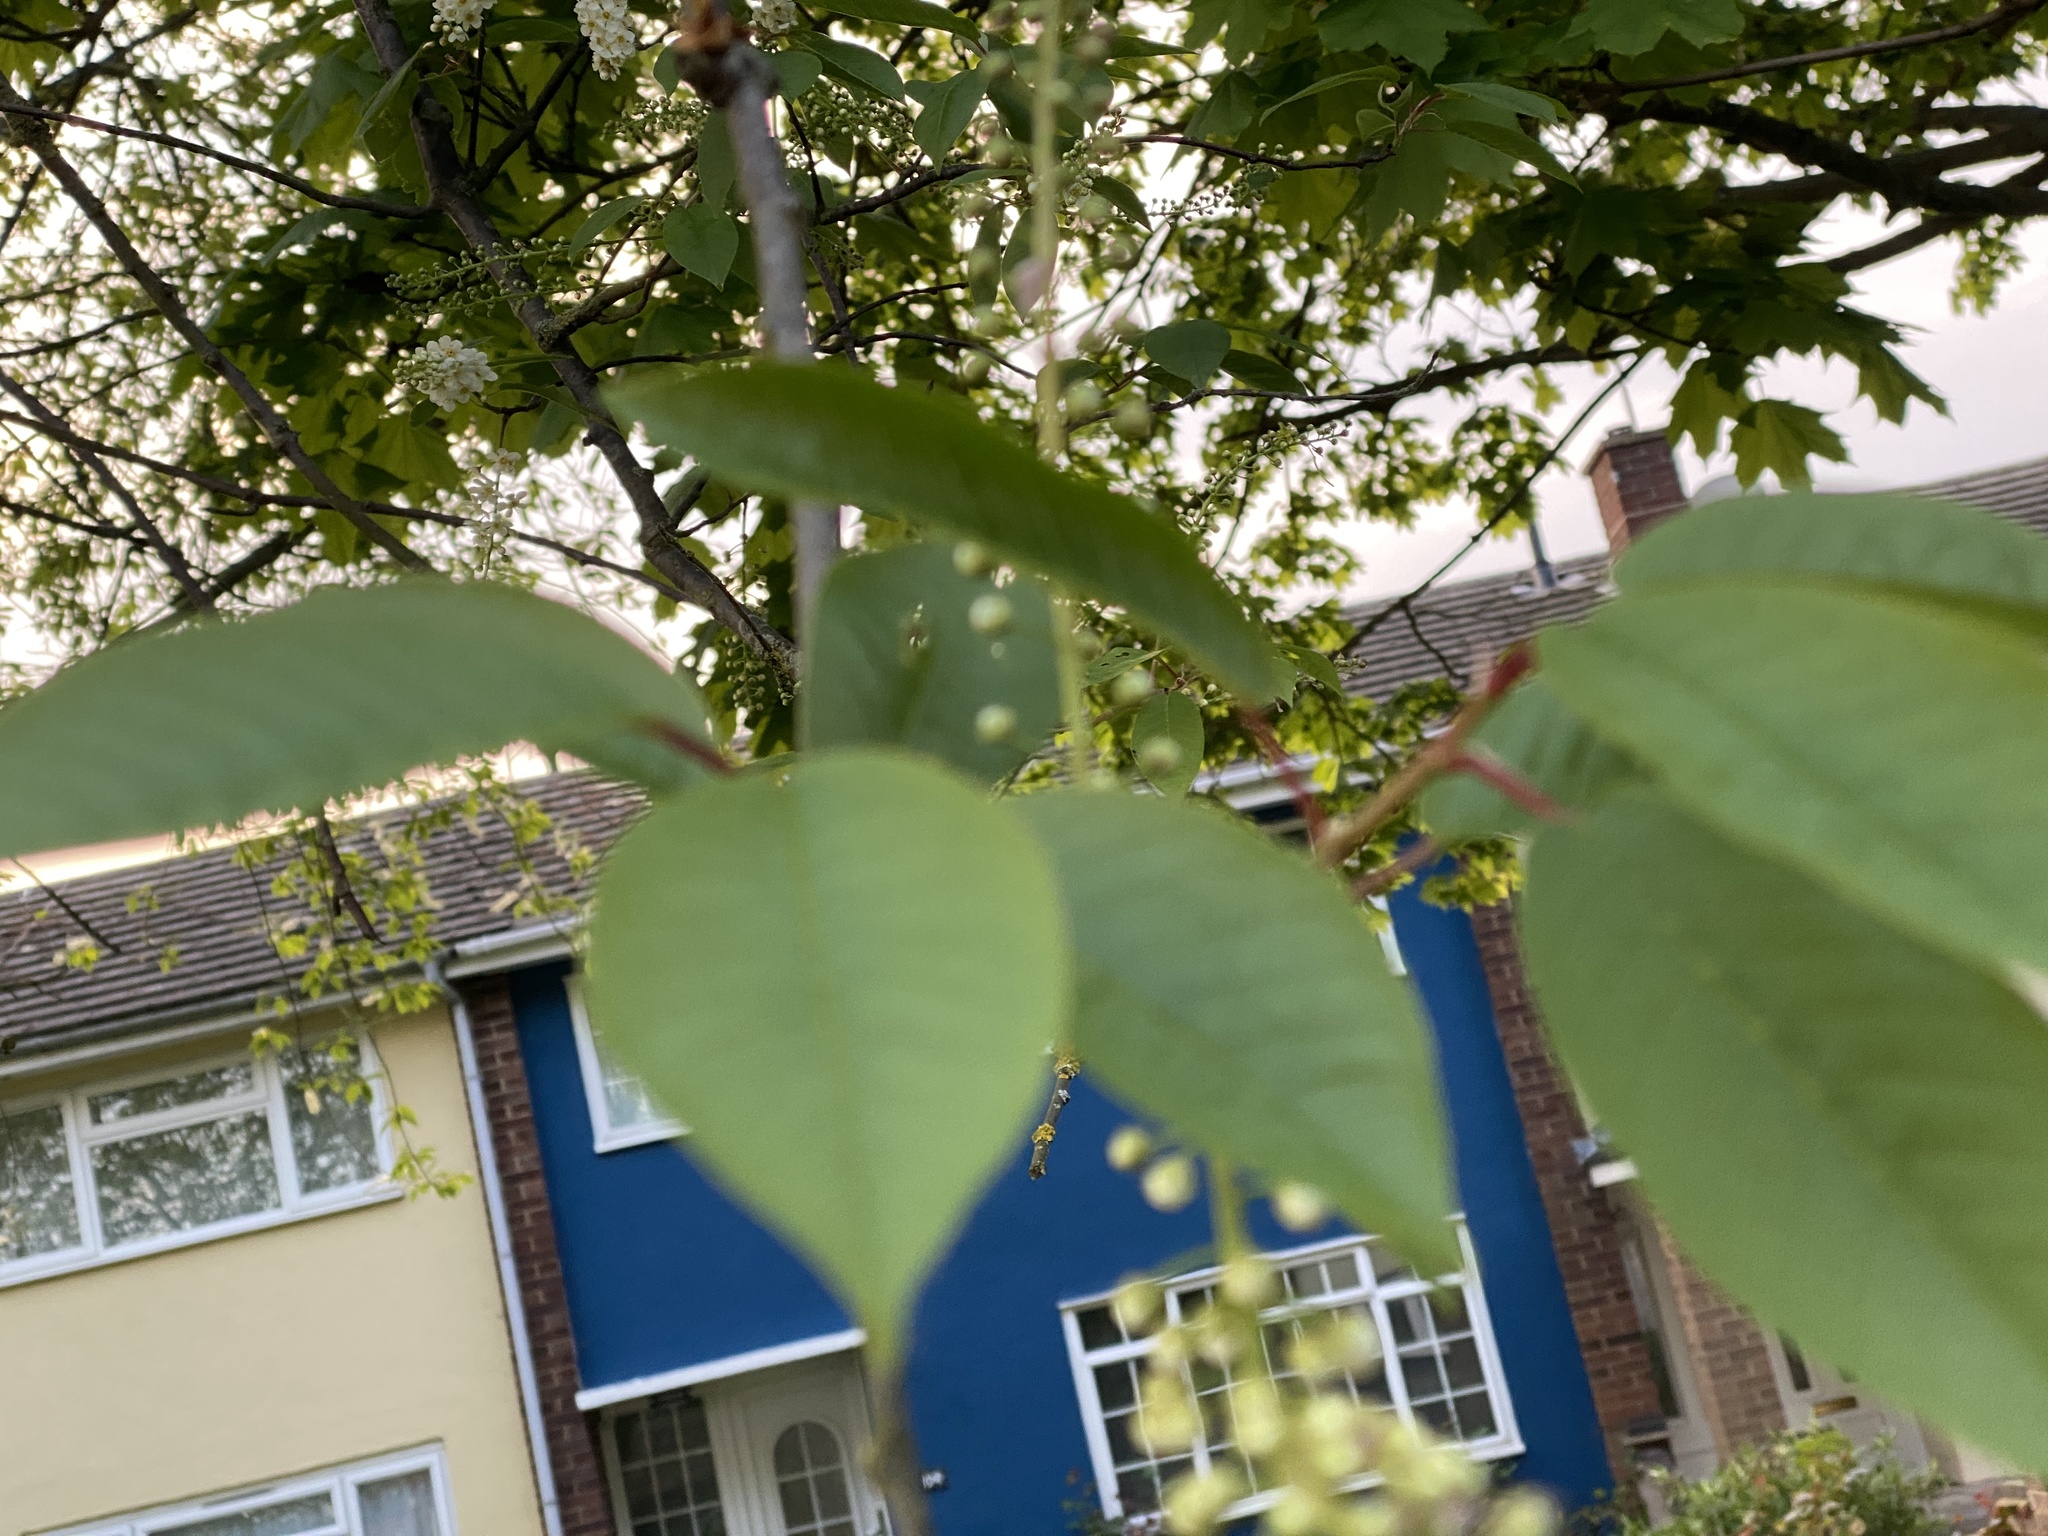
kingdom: Plantae
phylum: Tracheophyta
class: Magnoliopsida
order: Rosales
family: Rosaceae
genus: Prunus
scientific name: Prunus padus
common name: Bird cherry
